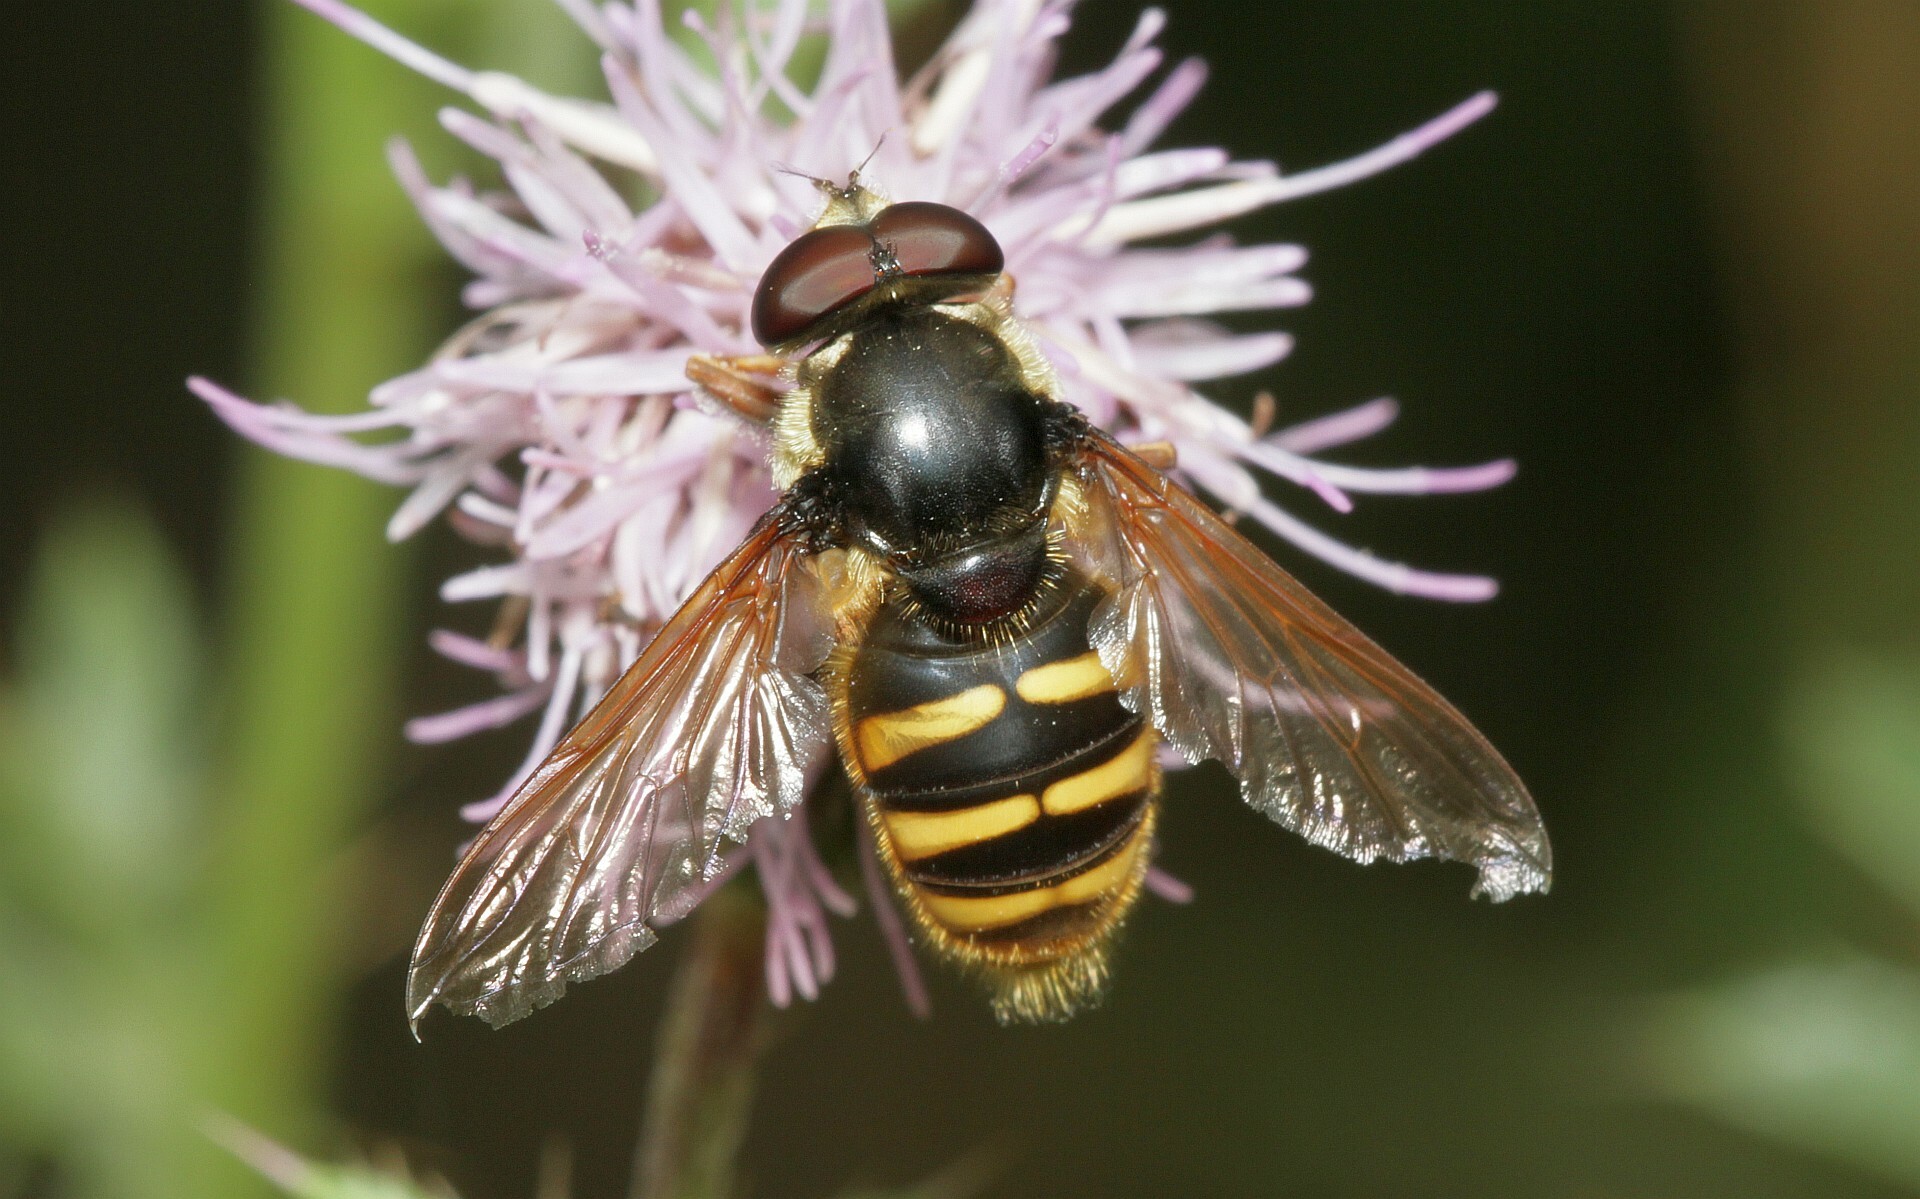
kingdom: Animalia
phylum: Arthropoda
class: Insecta
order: Diptera
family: Syrphidae
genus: Sericomyia
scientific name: Sericomyia silentis
